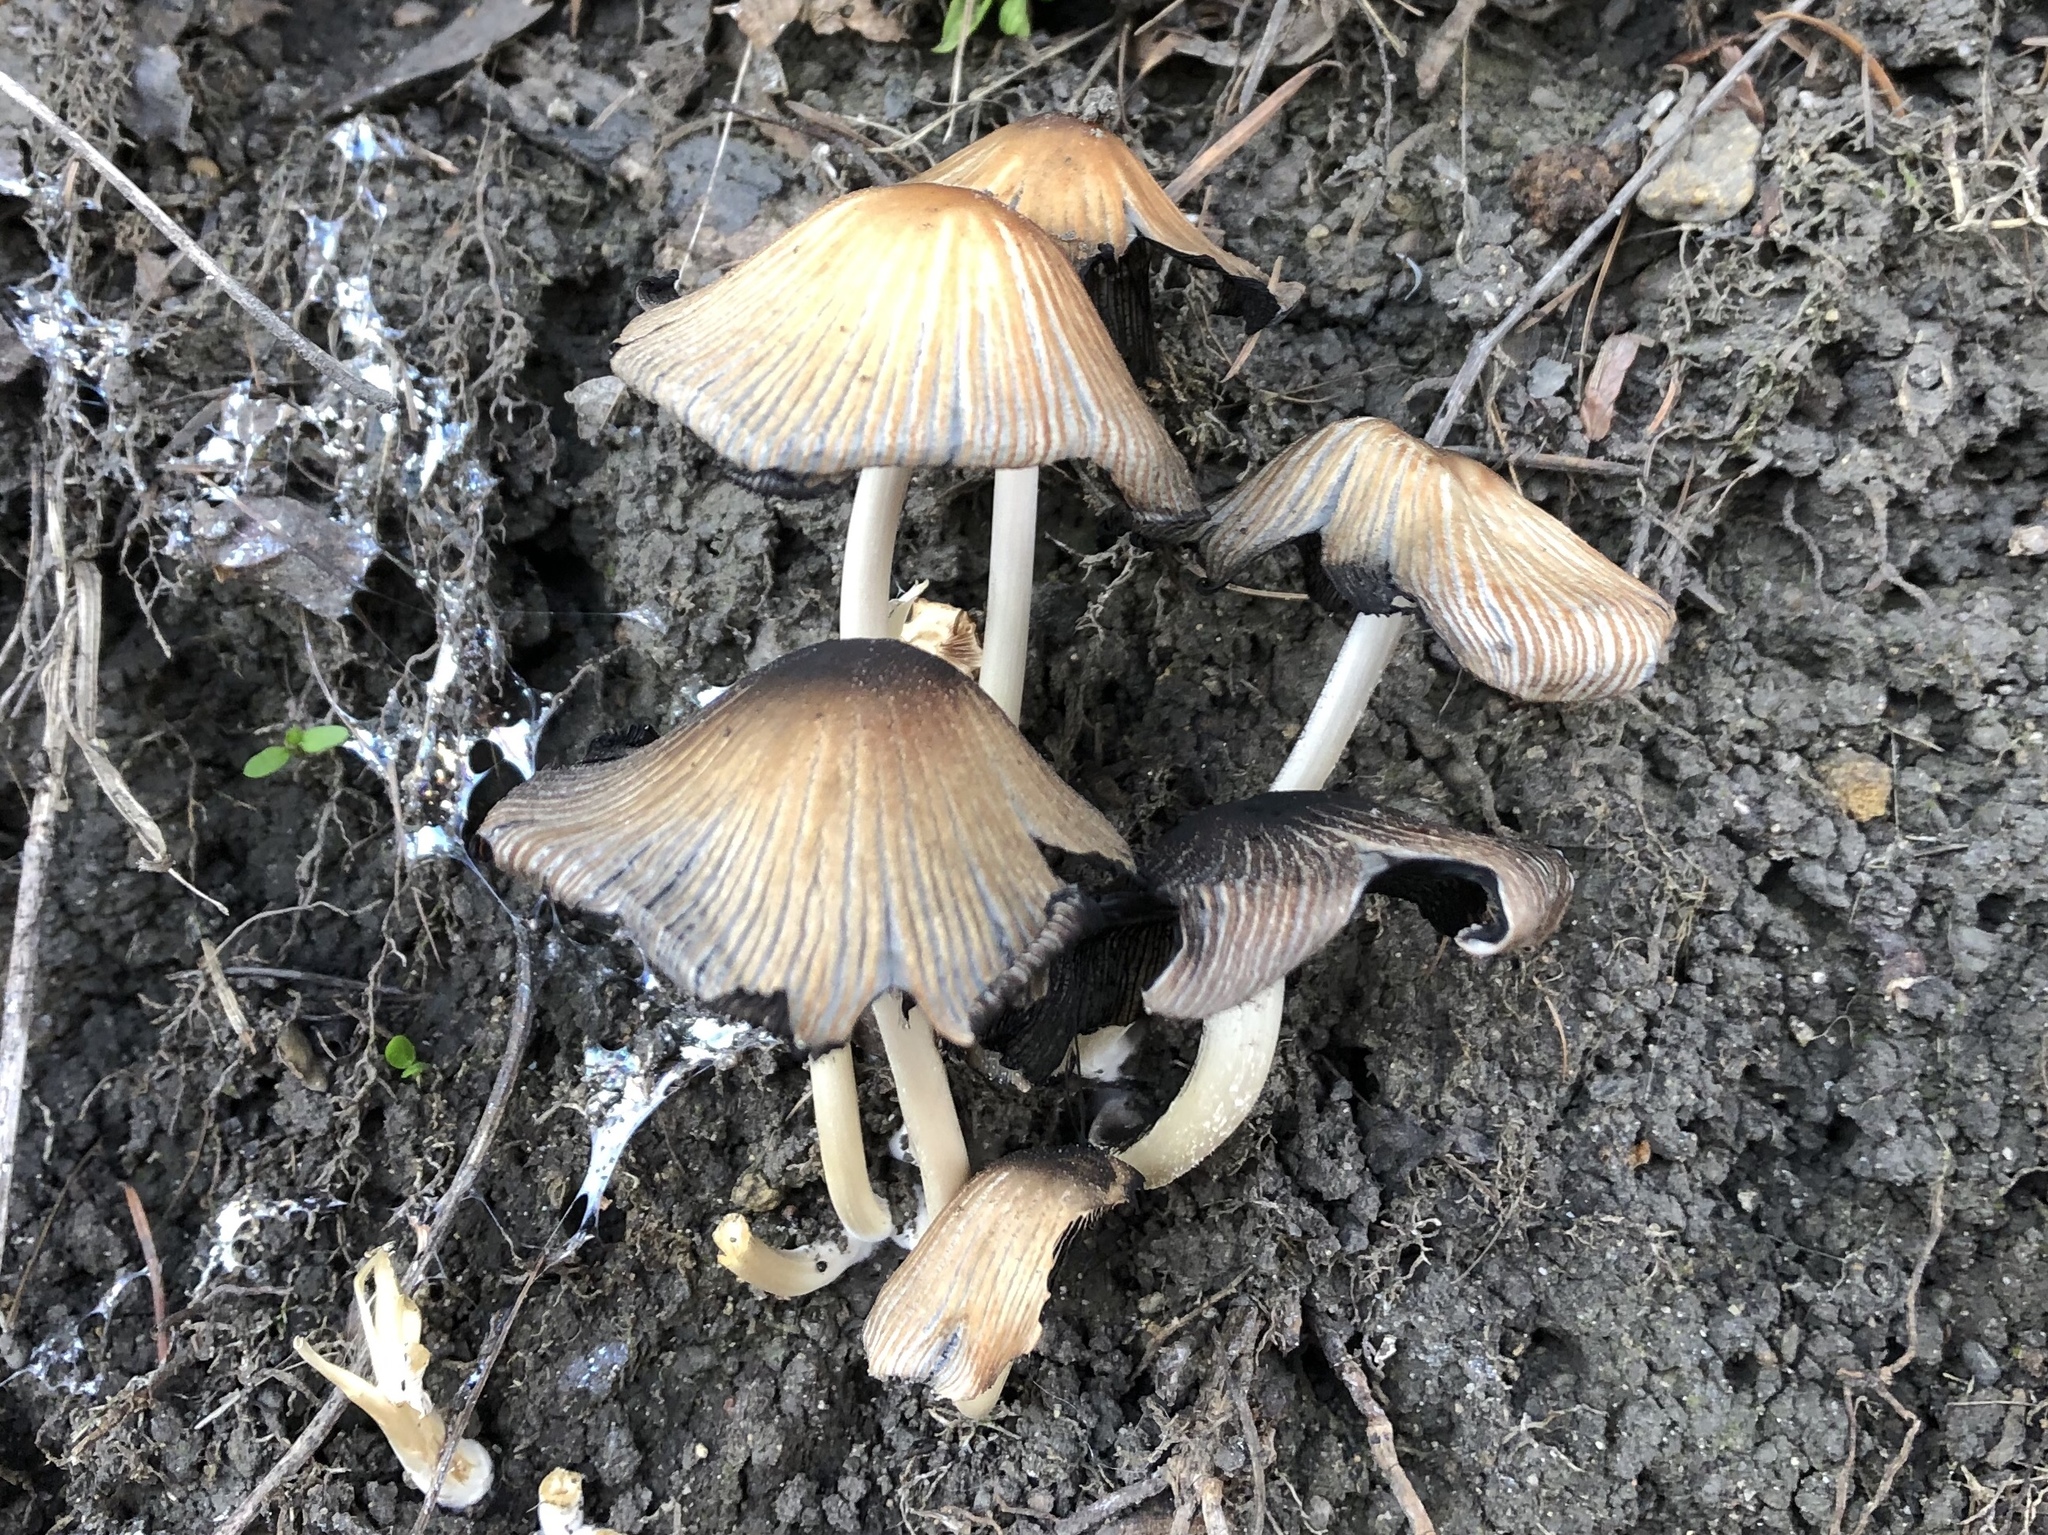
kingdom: Fungi
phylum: Basidiomycota
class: Agaricomycetes
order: Agaricales
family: Psathyrellaceae
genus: Coprinopsis
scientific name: Coprinopsis atramentaria
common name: Common ink-cap
